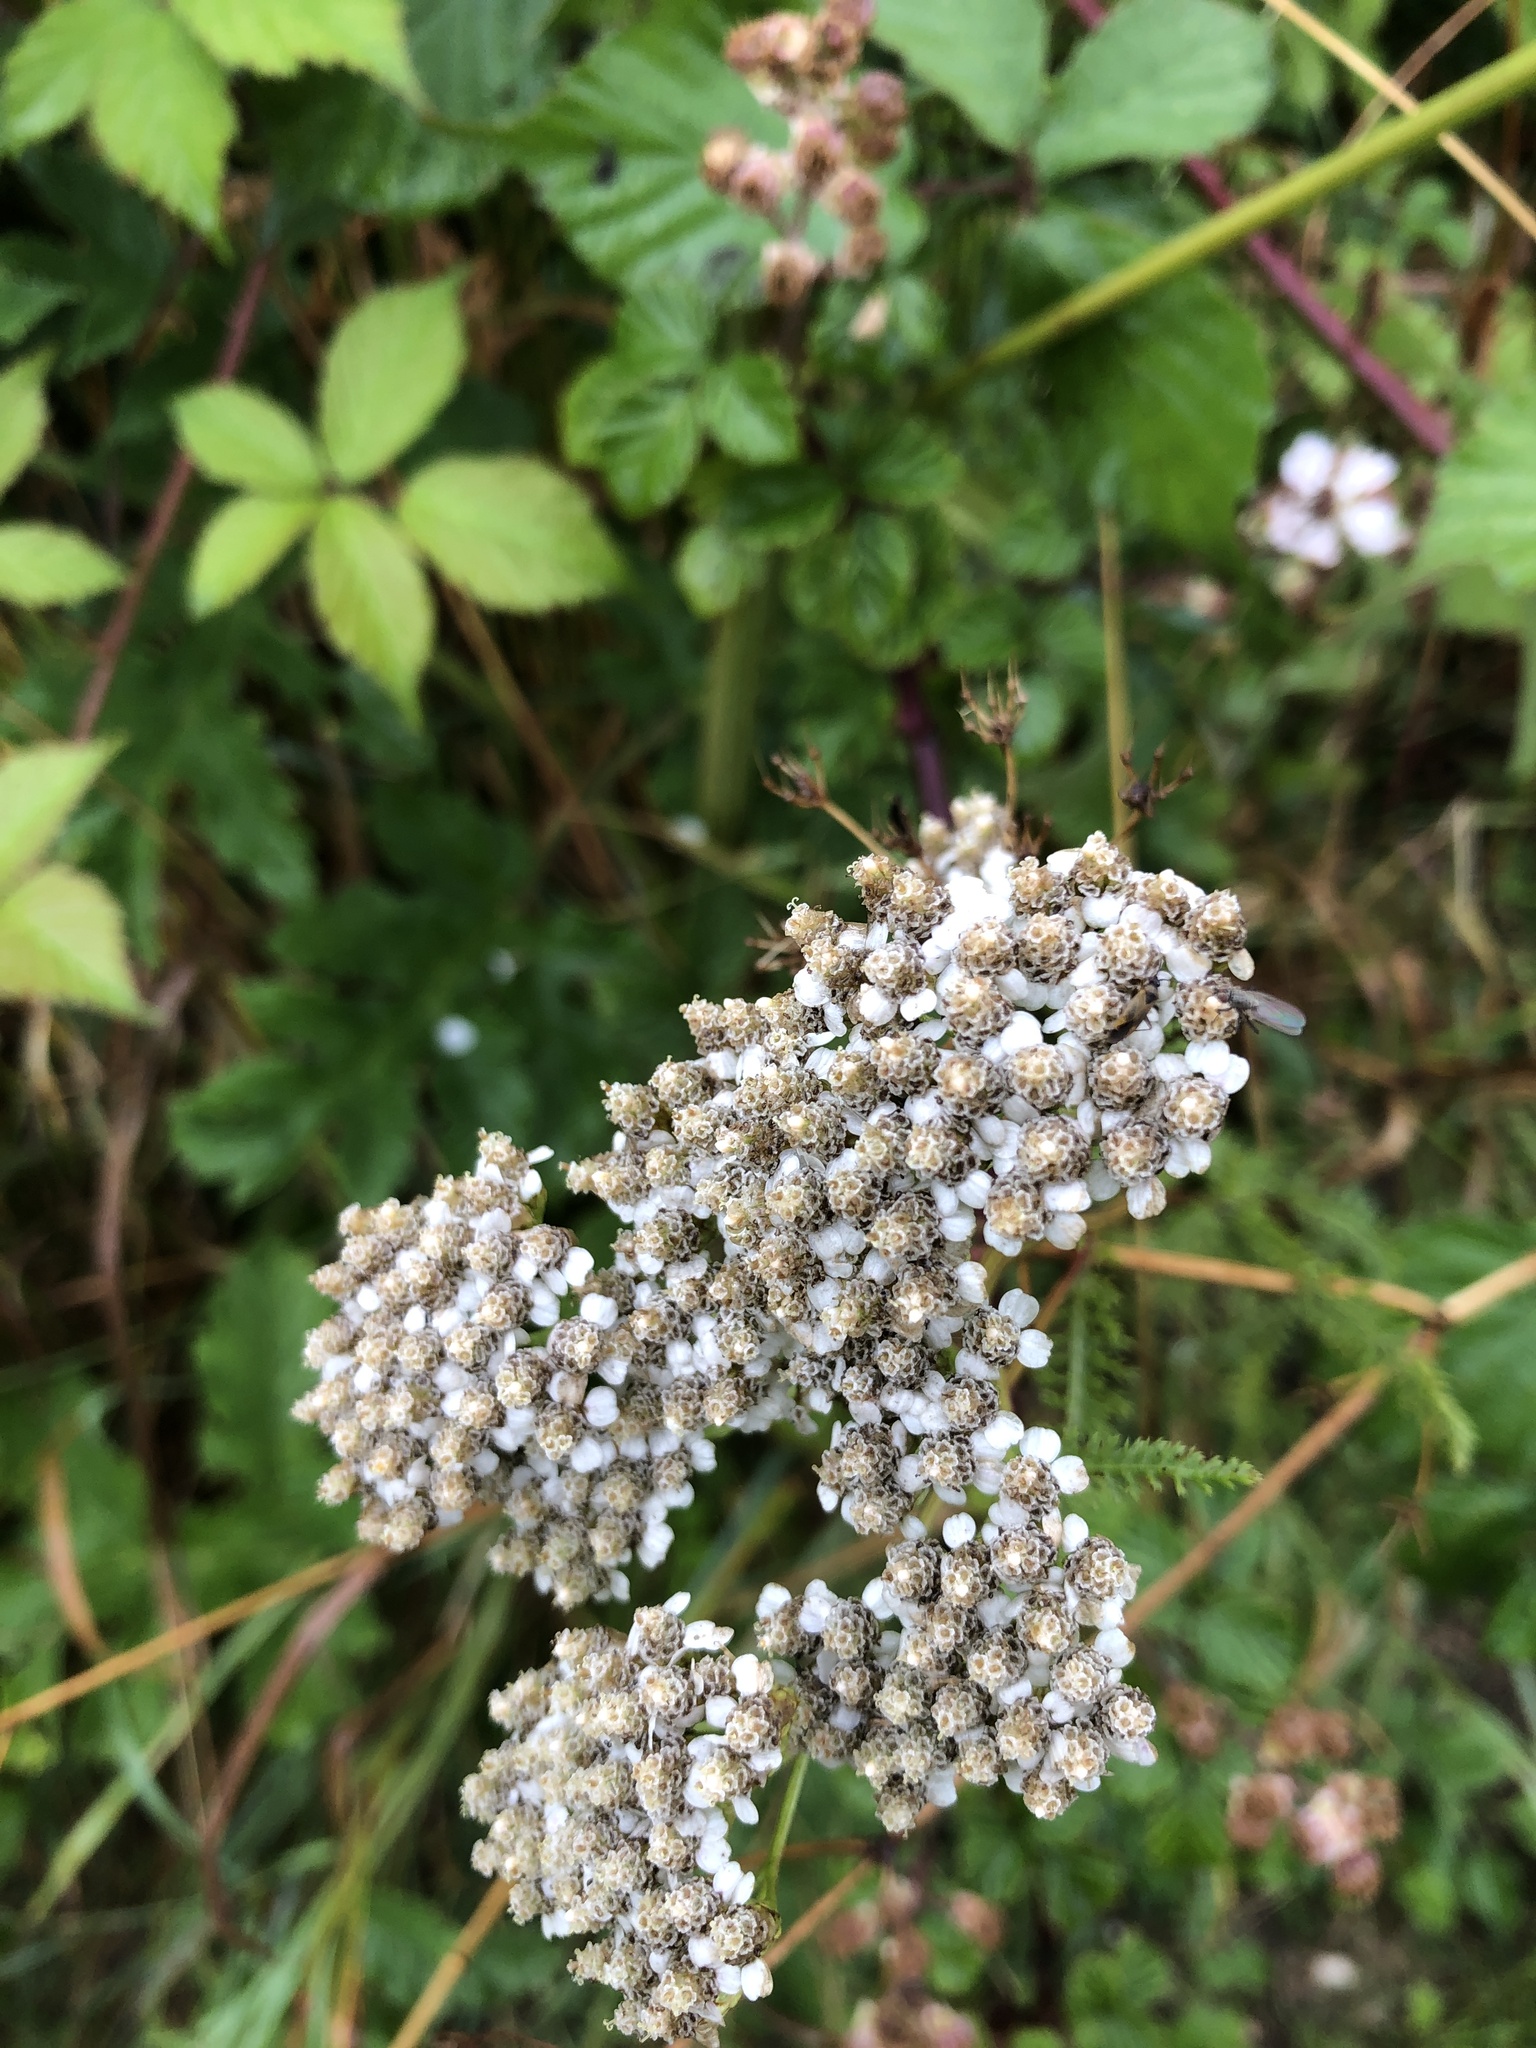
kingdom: Plantae
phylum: Tracheophyta
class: Magnoliopsida
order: Asterales
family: Asteraceae
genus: Achillea
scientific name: Achillea millefolium
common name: Yarrow
